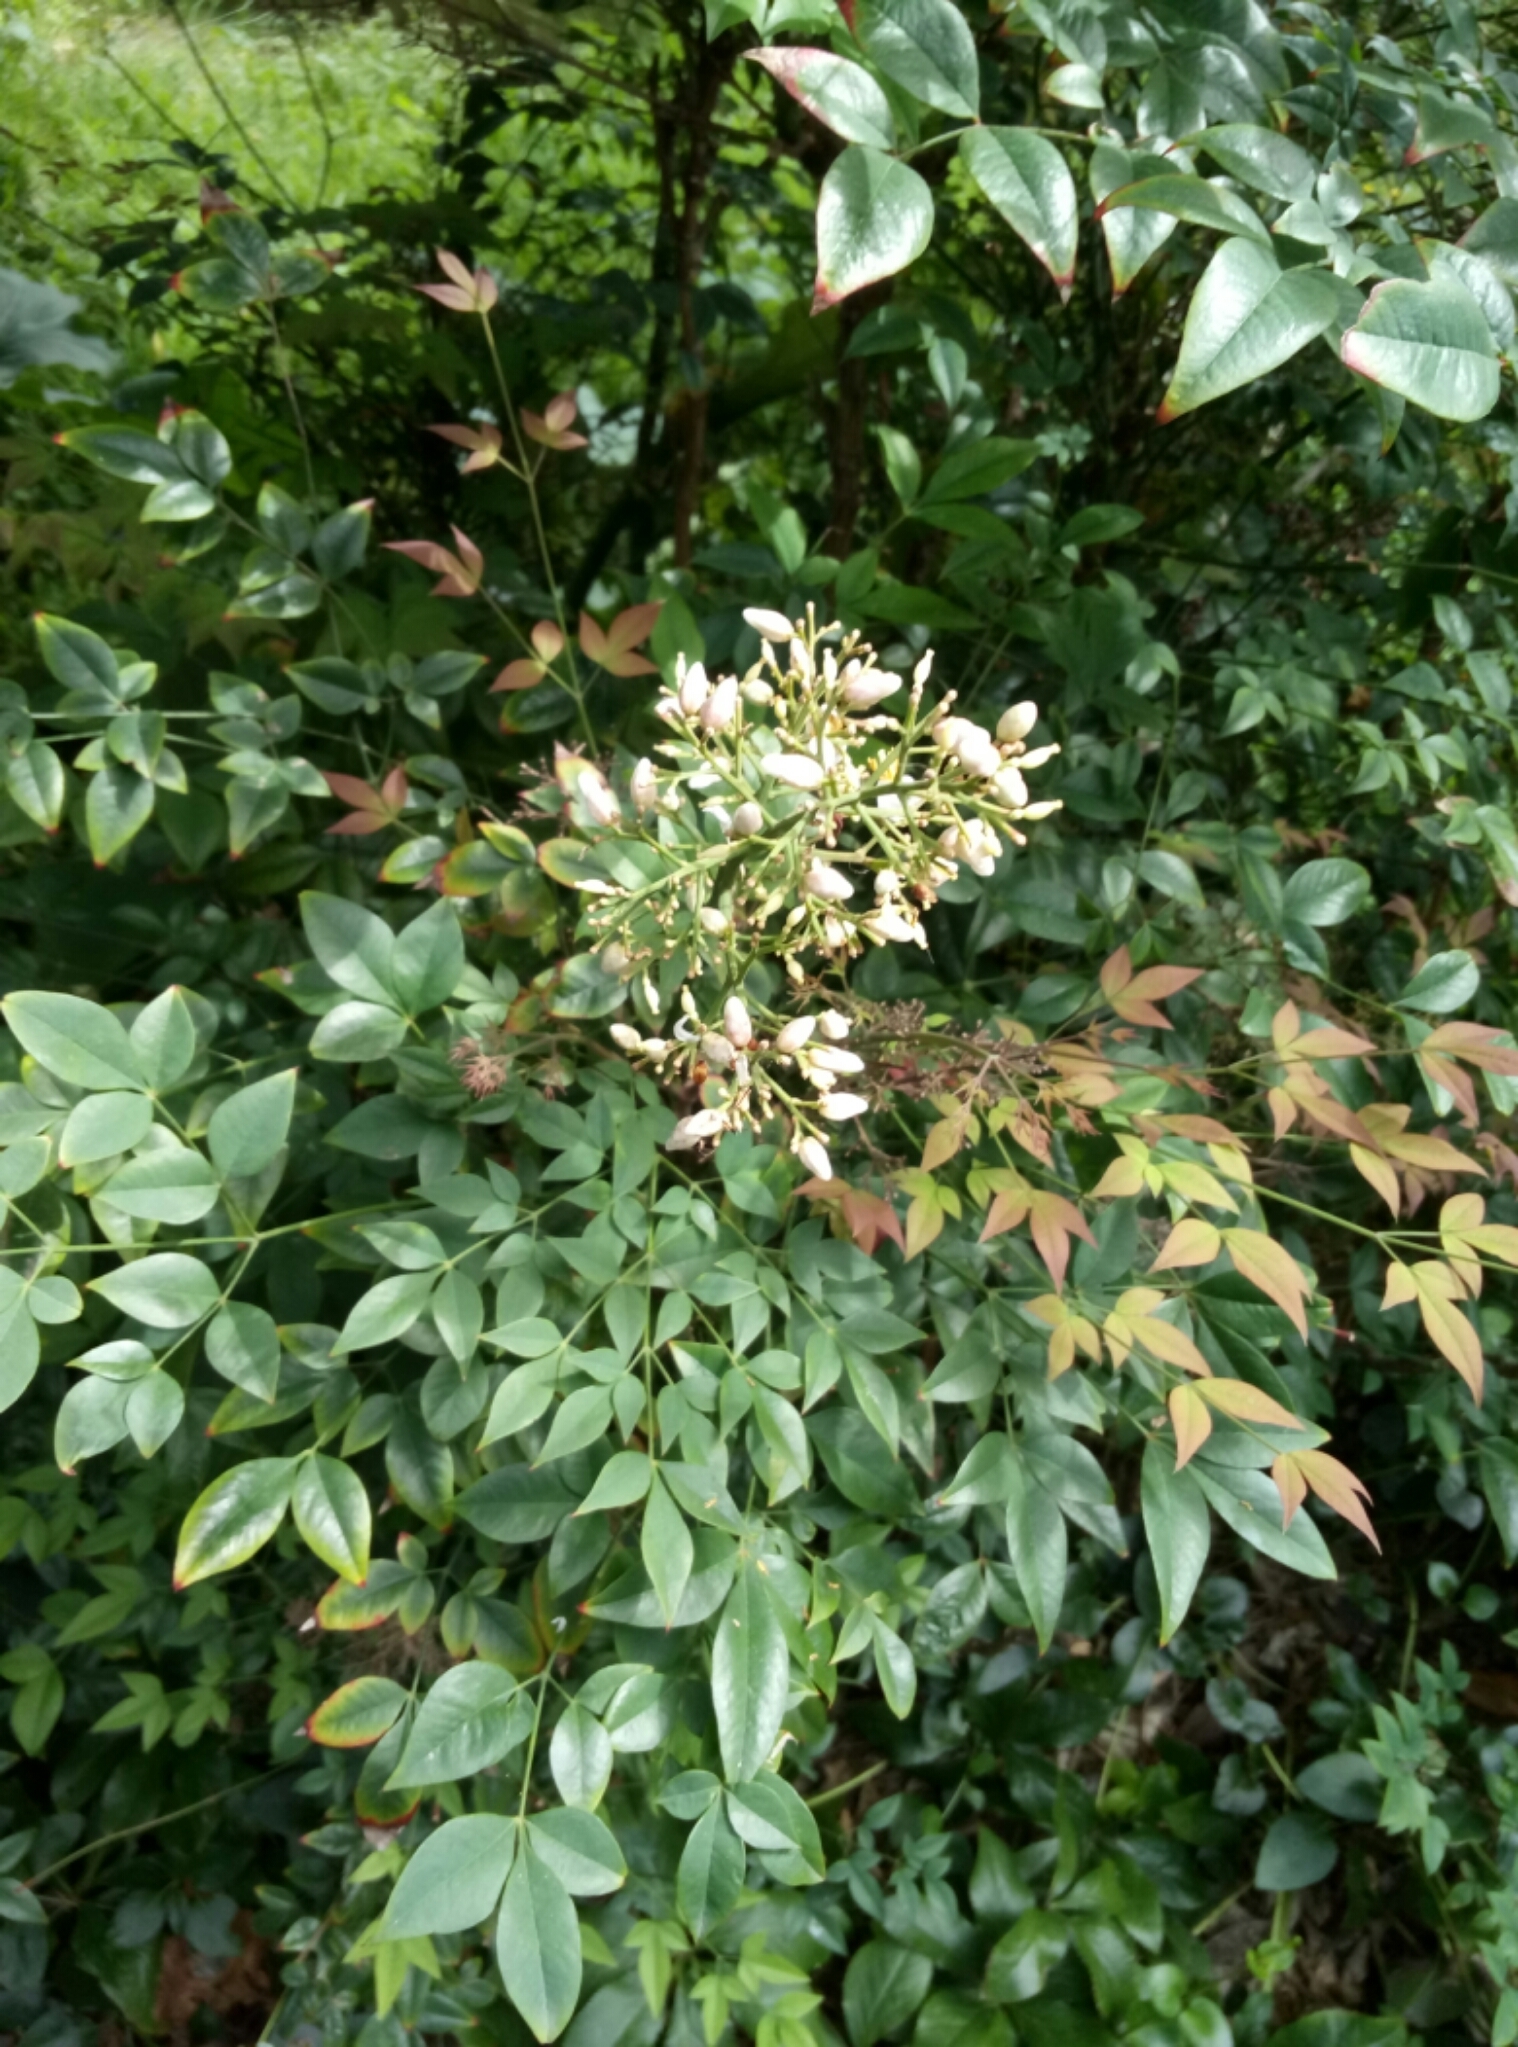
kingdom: Plantae
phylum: Tracheophyta
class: Magnoliopsida
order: Ranunculales
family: Berberidaceae
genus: Nandina
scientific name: Nandina domestica
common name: Sacred bamboo
